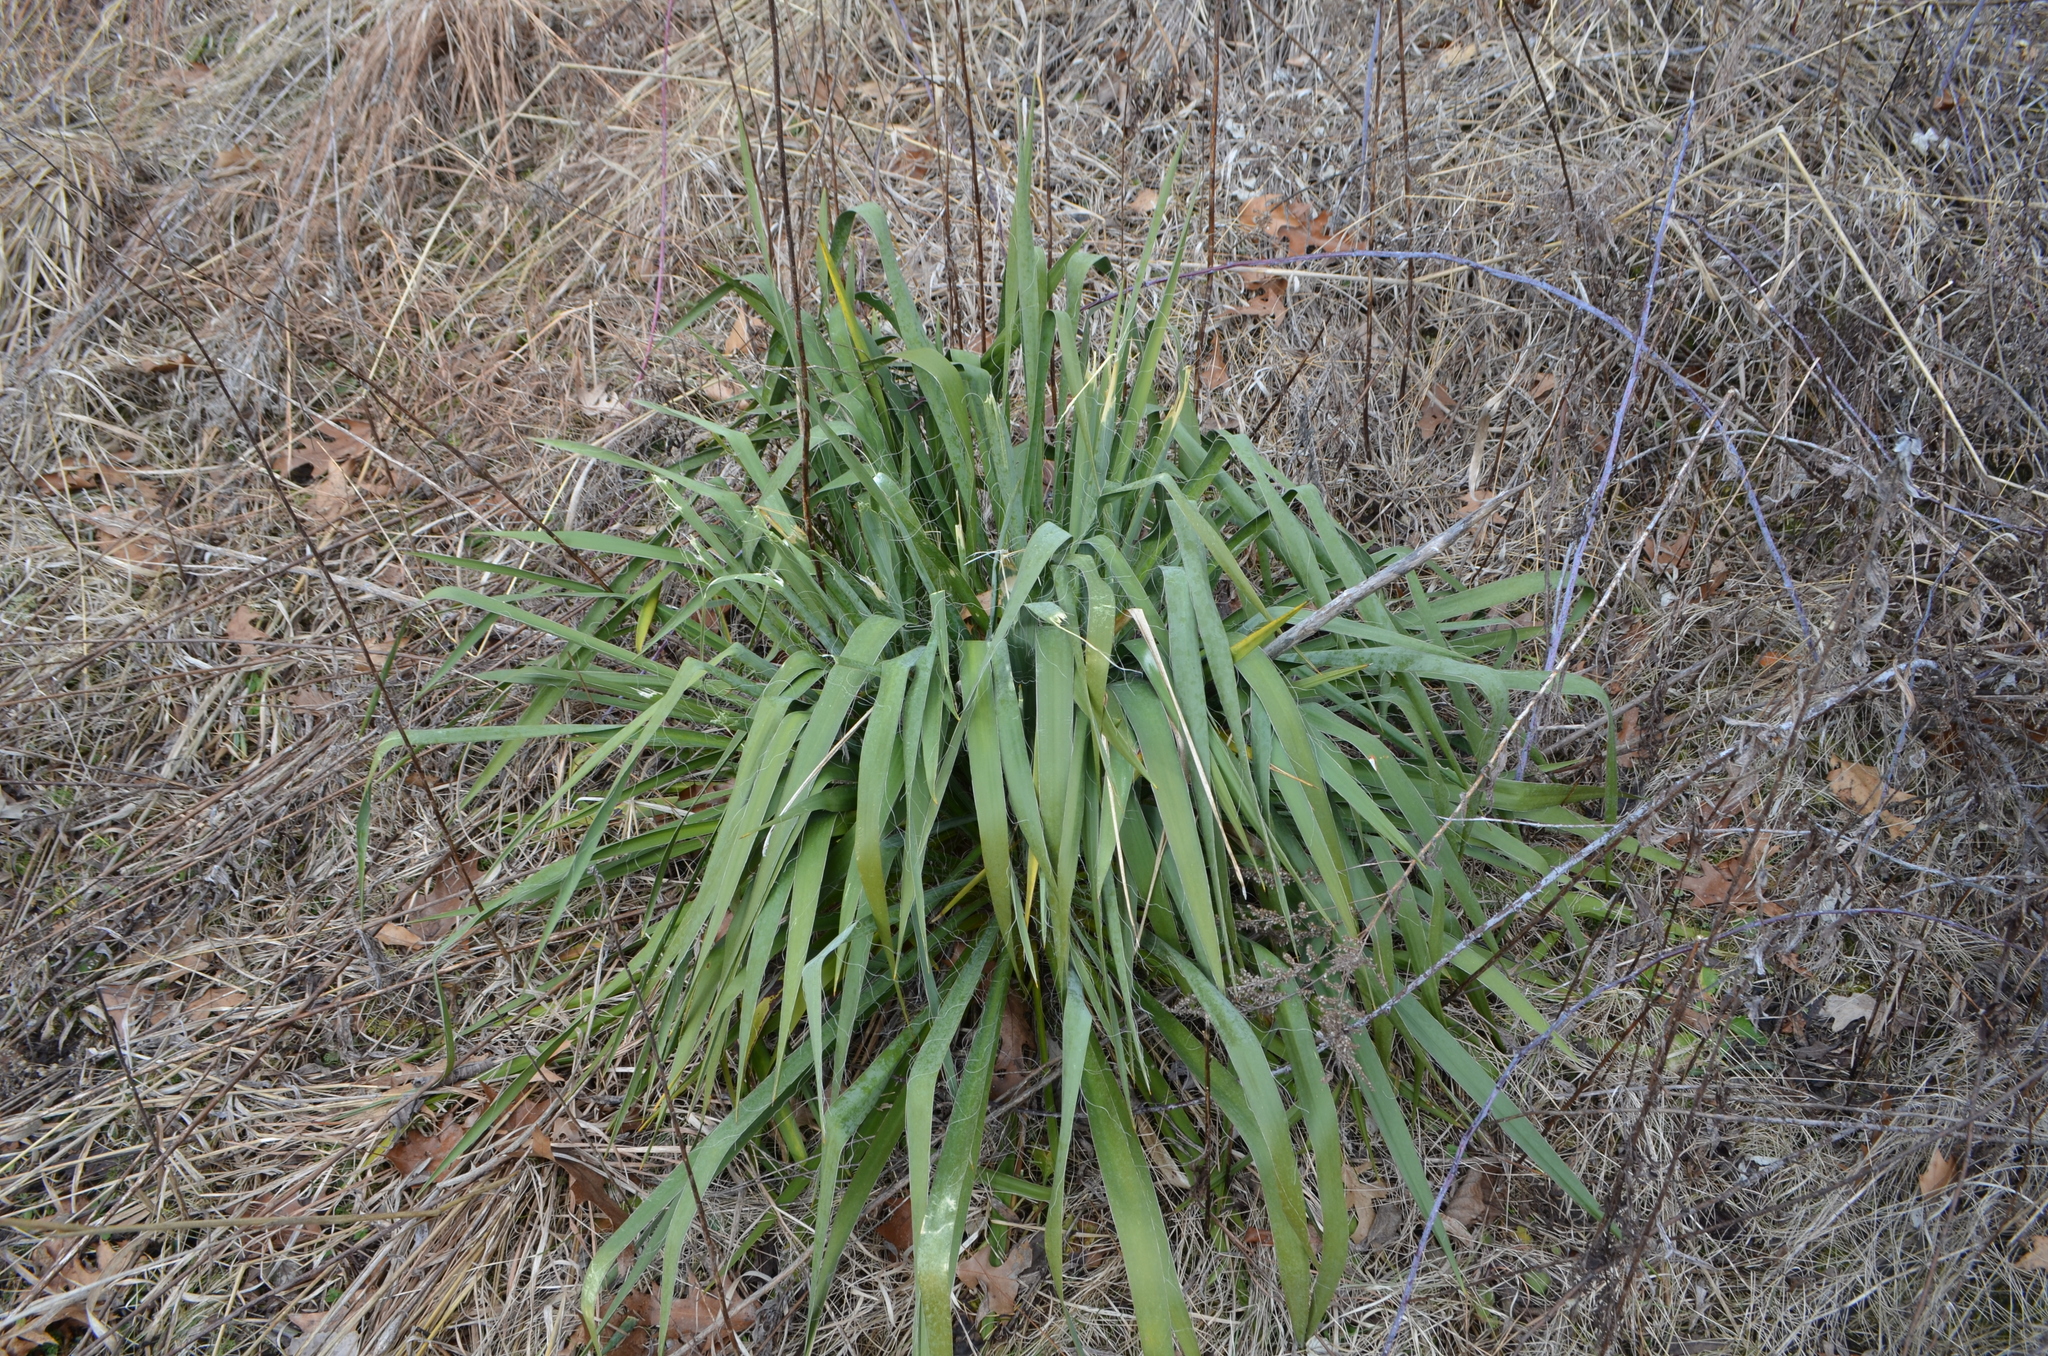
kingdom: Plantae
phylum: Tracheophyta
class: Liliopsida
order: Asparagales
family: Asparagaceae
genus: Yucca
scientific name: Yucca filamentosa
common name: Adam's-needle
